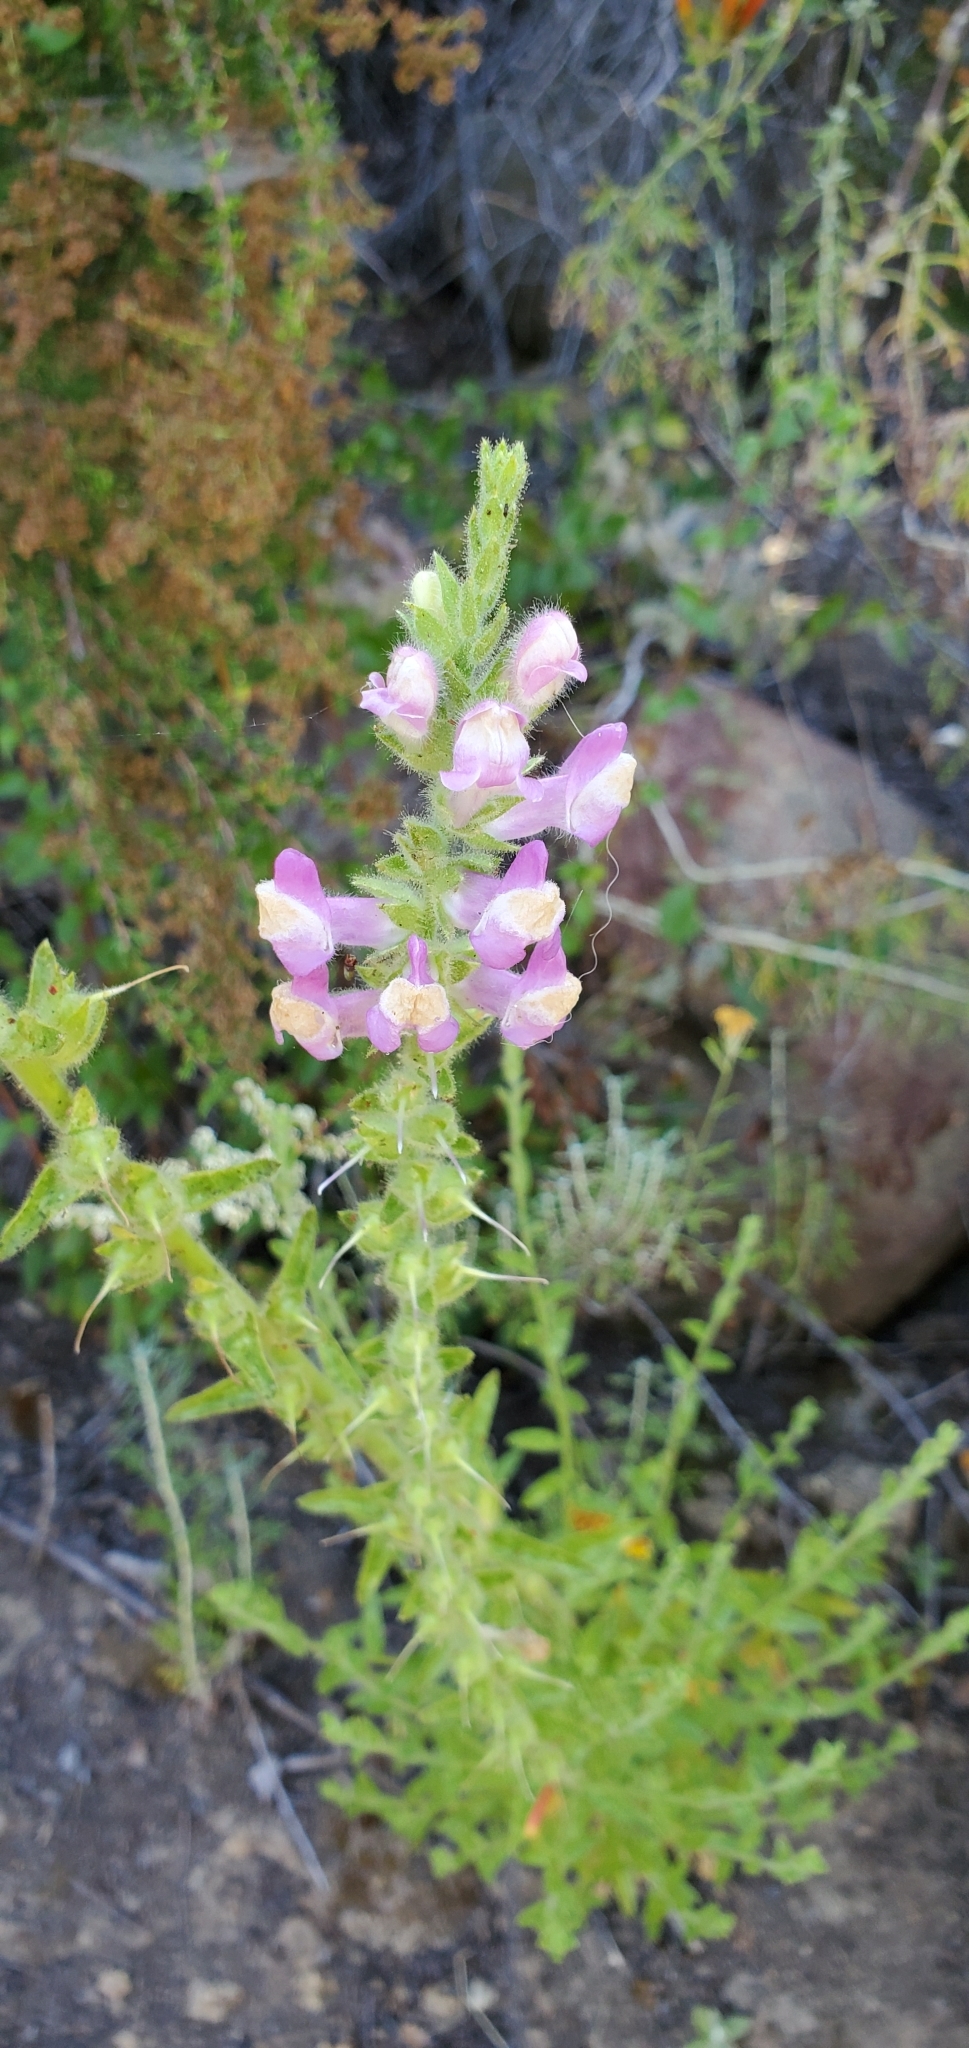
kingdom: Plantae
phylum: Tracheophyta
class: Magnoliopsida
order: Lamiales
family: Plantaginaceae
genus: Sairocarpus
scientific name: Sairocarpus multiflorus
